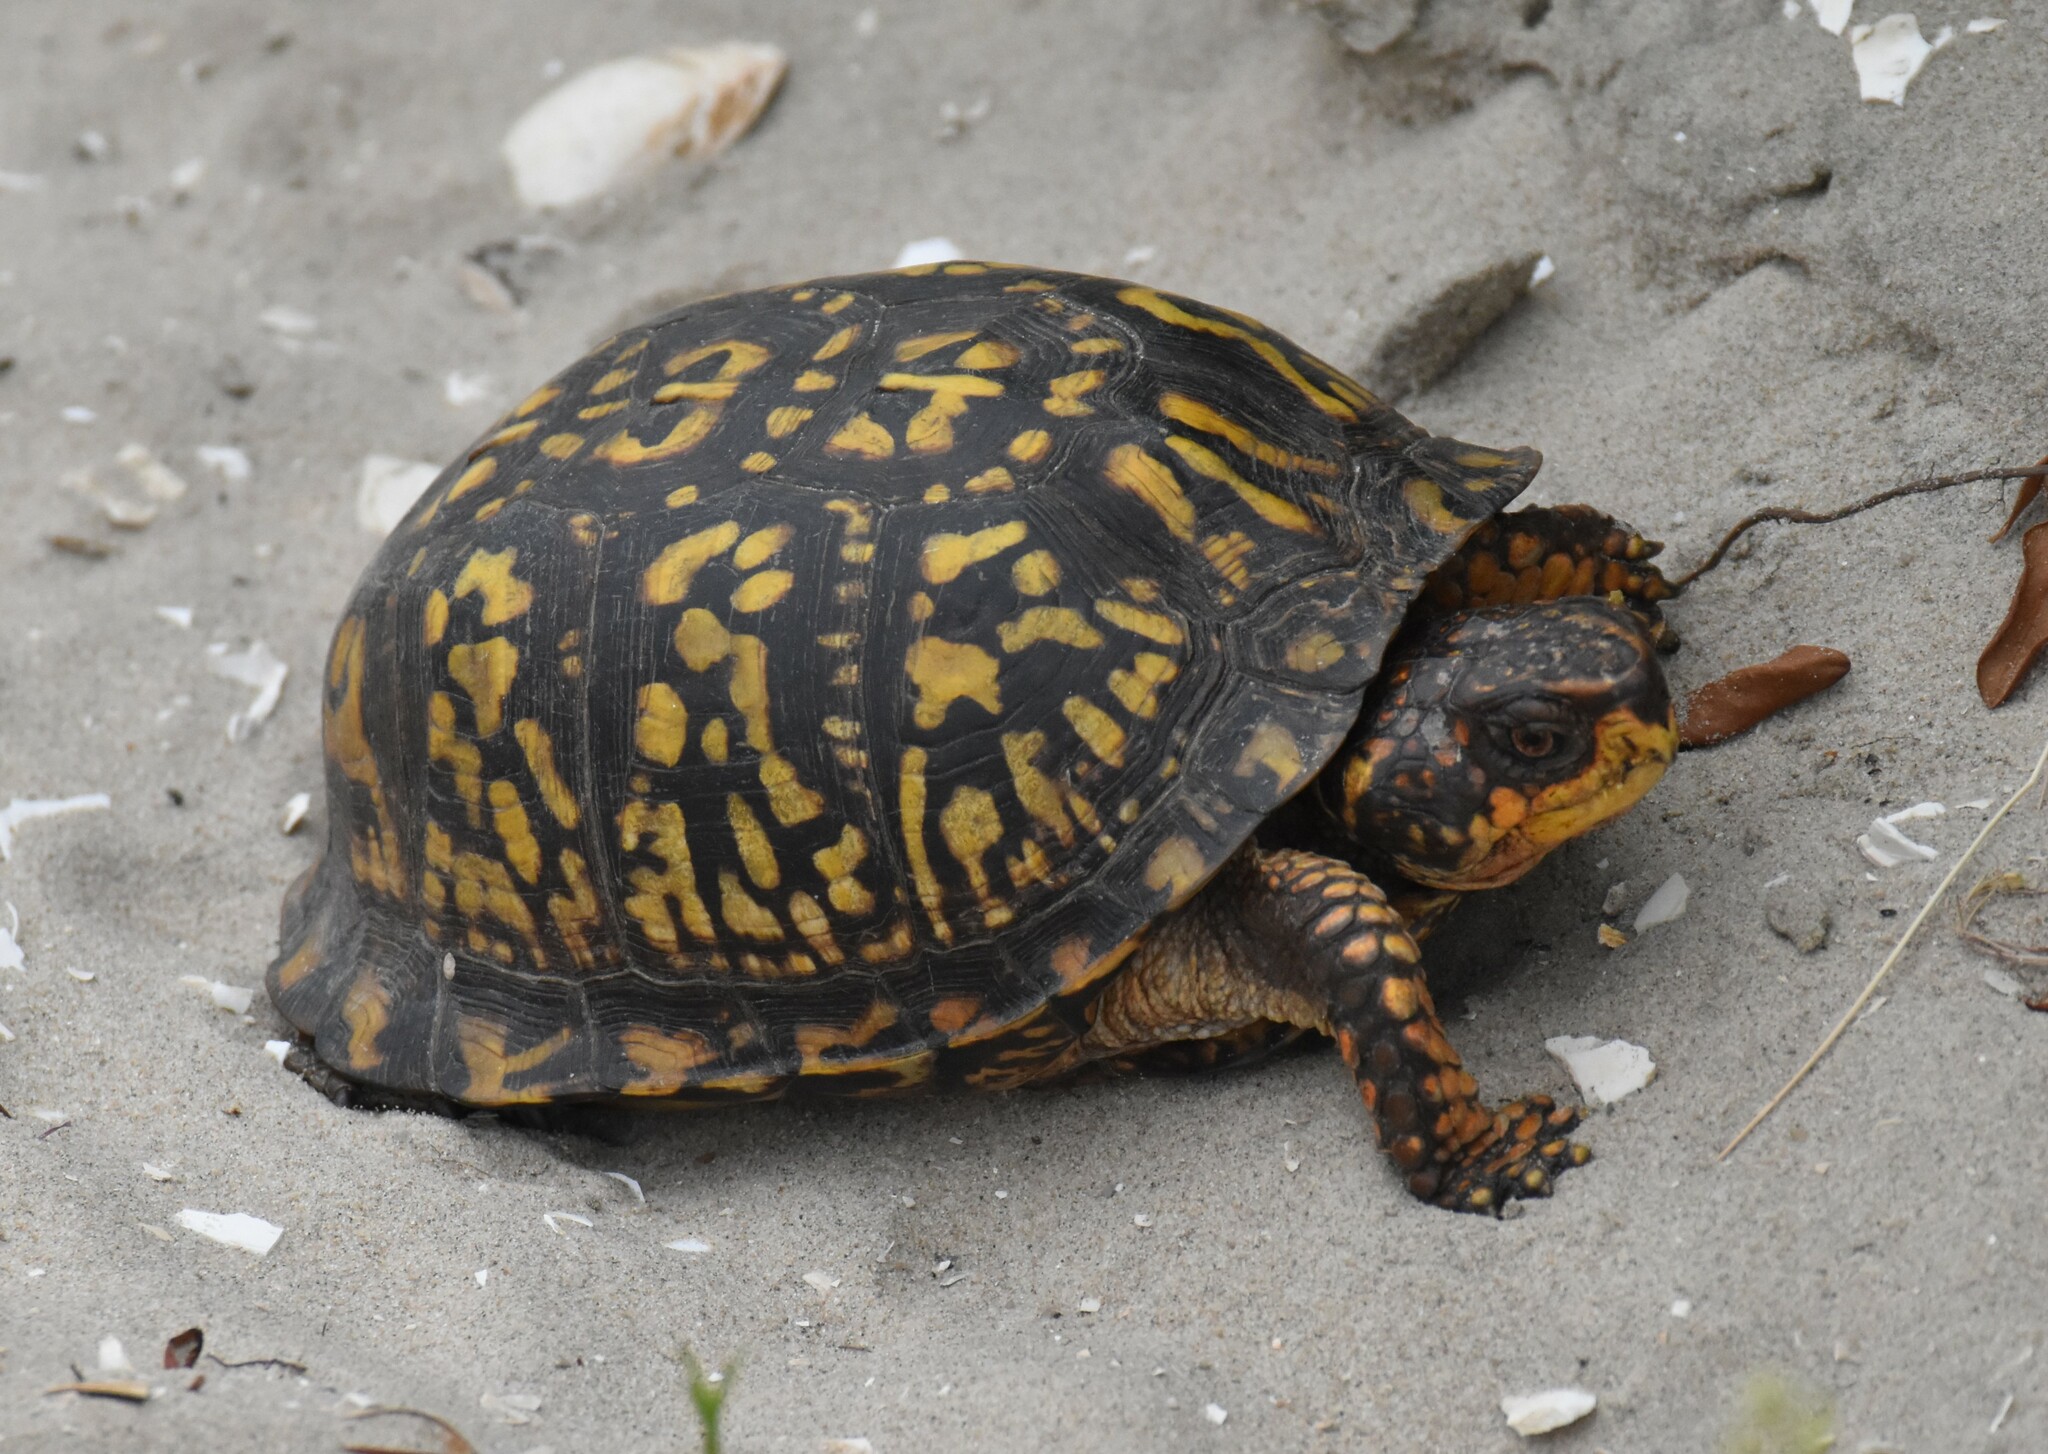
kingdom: Animalia
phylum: Chordata
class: Testudines
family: Emydidae
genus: Terrapene
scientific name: Terrapene carolina
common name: Common box turtle
